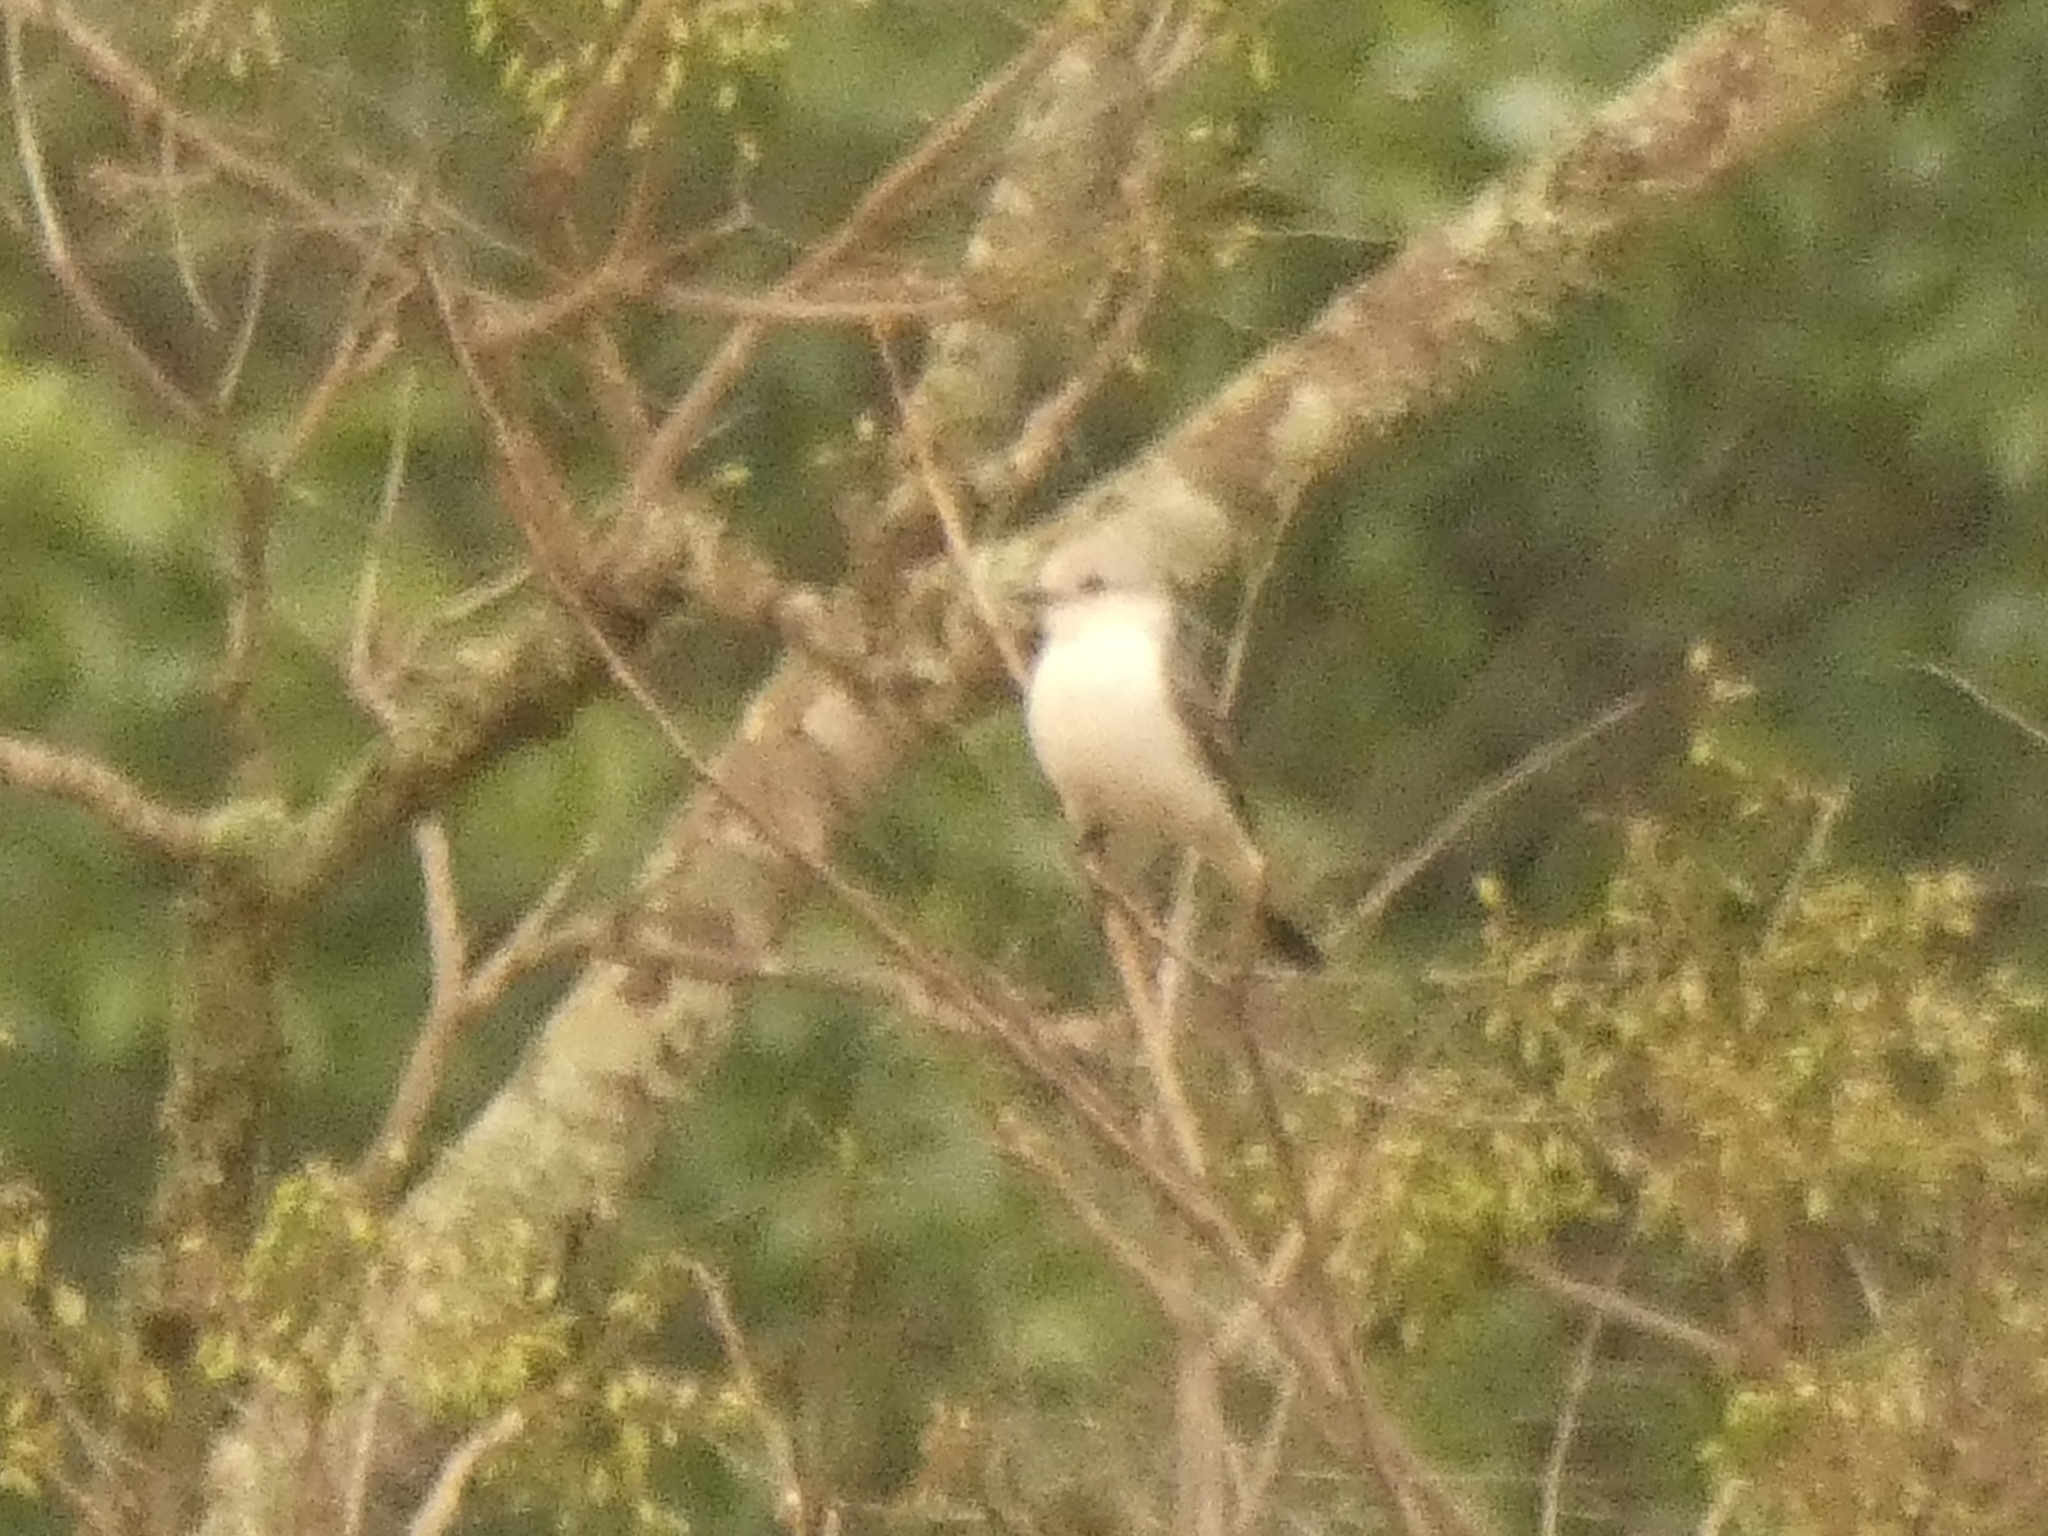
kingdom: Animalia
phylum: Chordata
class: Aves
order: Passeriformes
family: Tyrannidae
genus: Xolmis
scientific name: Xolmis velatus
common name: White-rumped monjita
